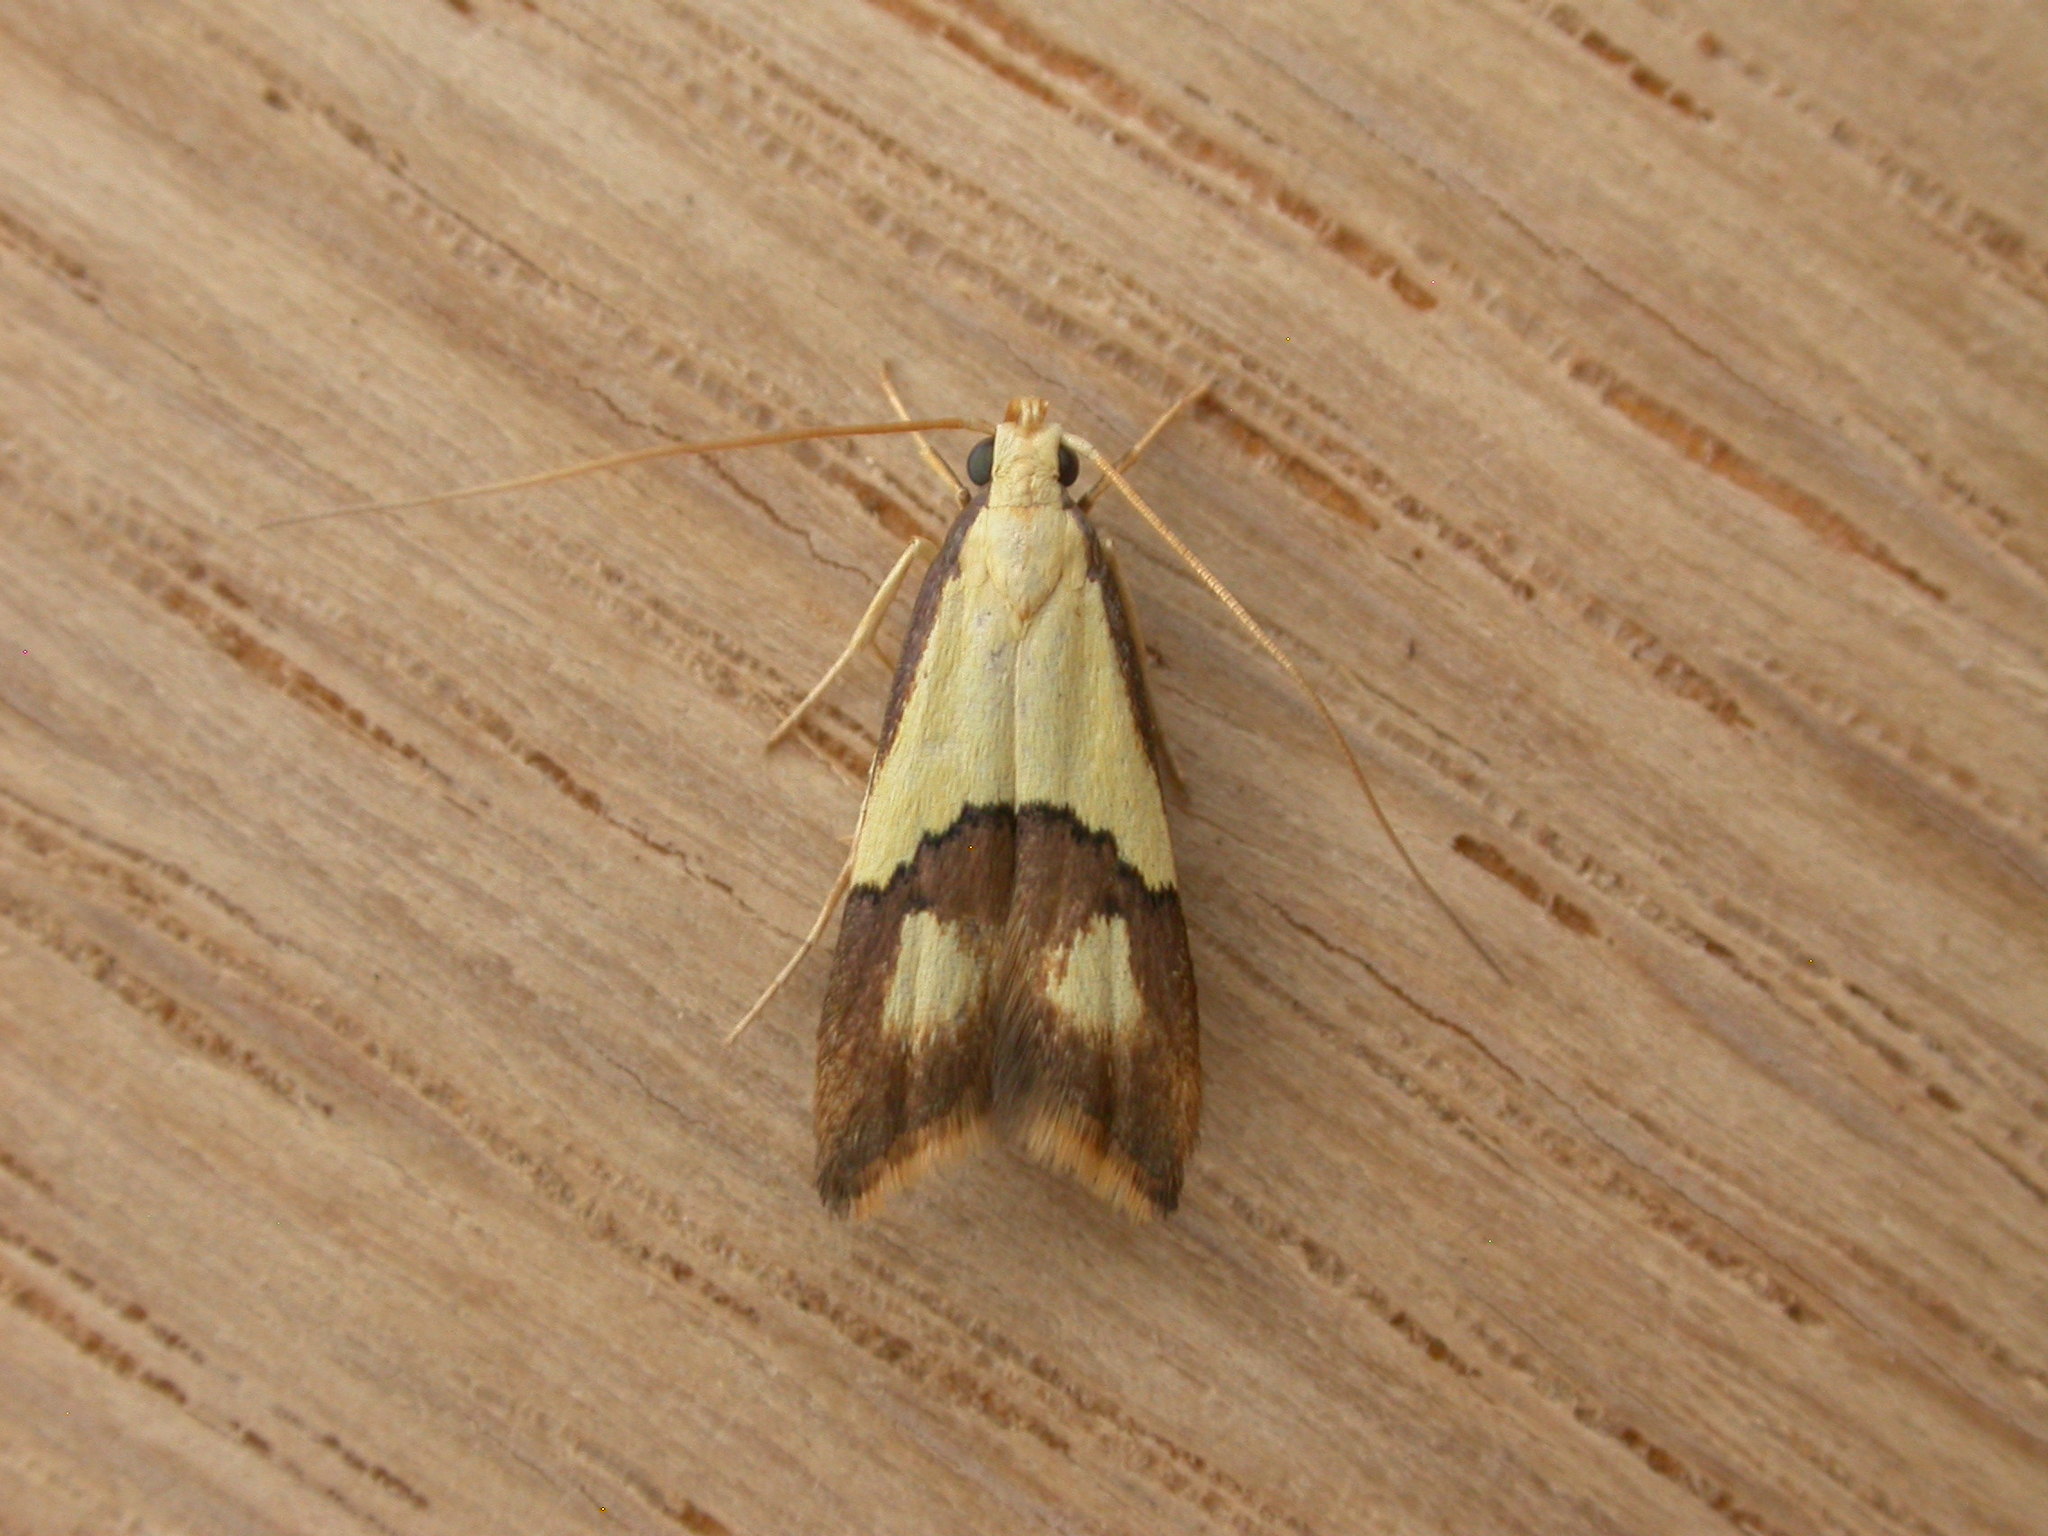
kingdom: Animalia
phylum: Arthropoda
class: Insecta
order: Lepidoptera
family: Lecithoceridae
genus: Crocanthes
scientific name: Crocanthes glycina
